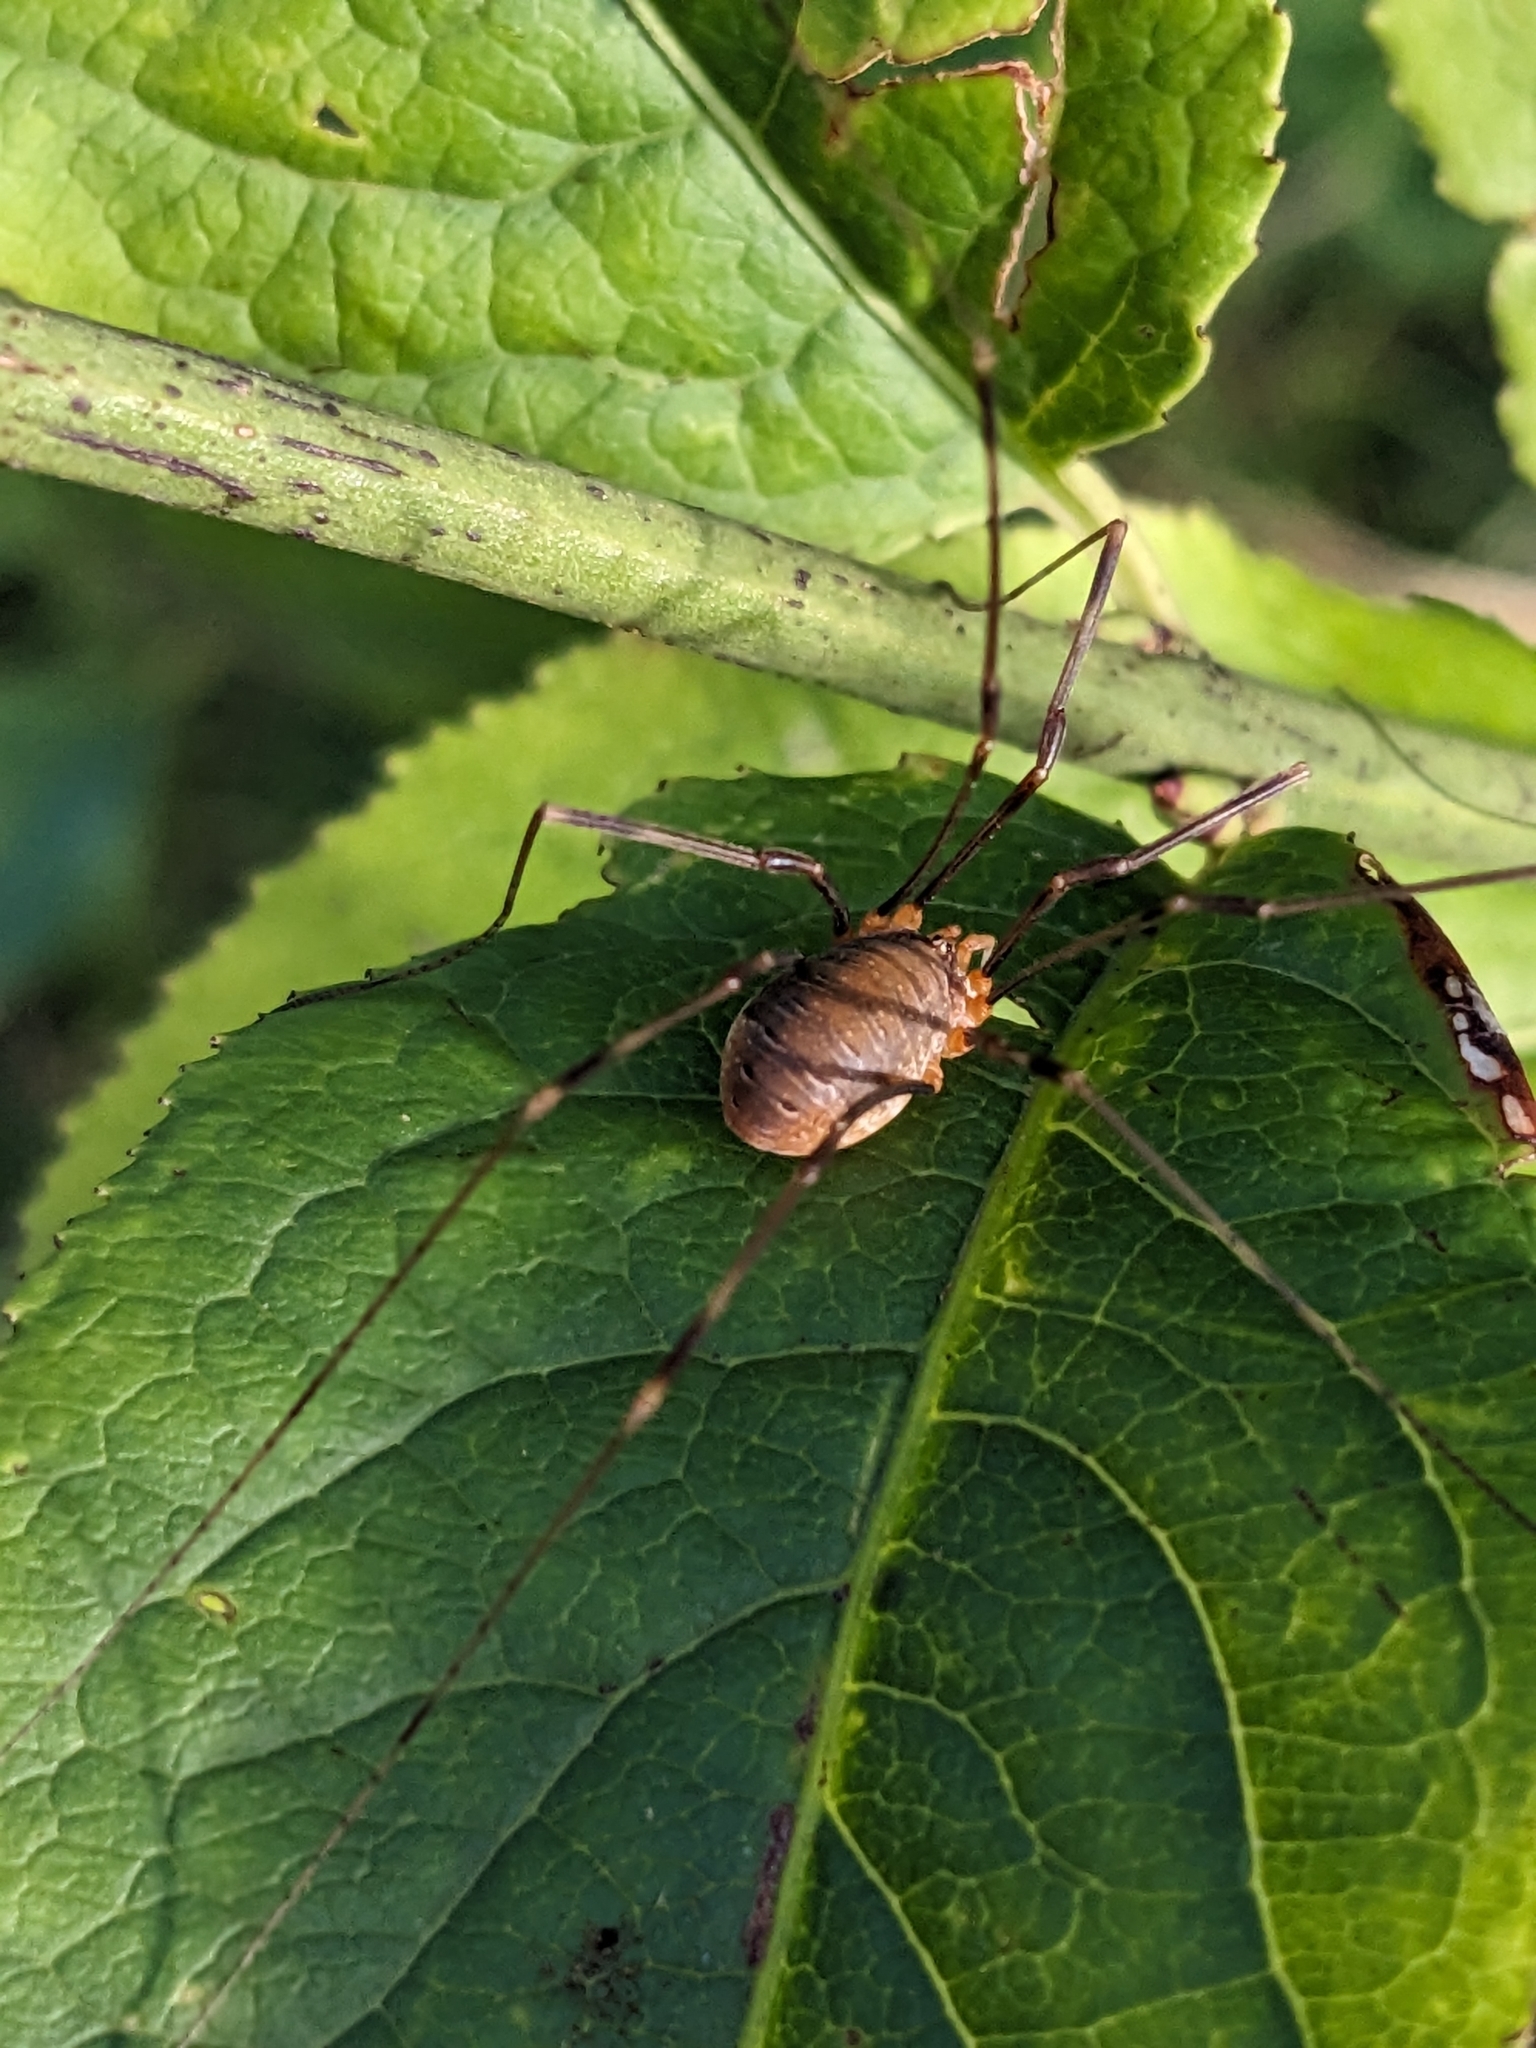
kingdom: Animalia
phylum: Arthropoda
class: Arachnida
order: Opiliones
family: Phalangiidae
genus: Opilio
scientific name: Opilio canestrinii
